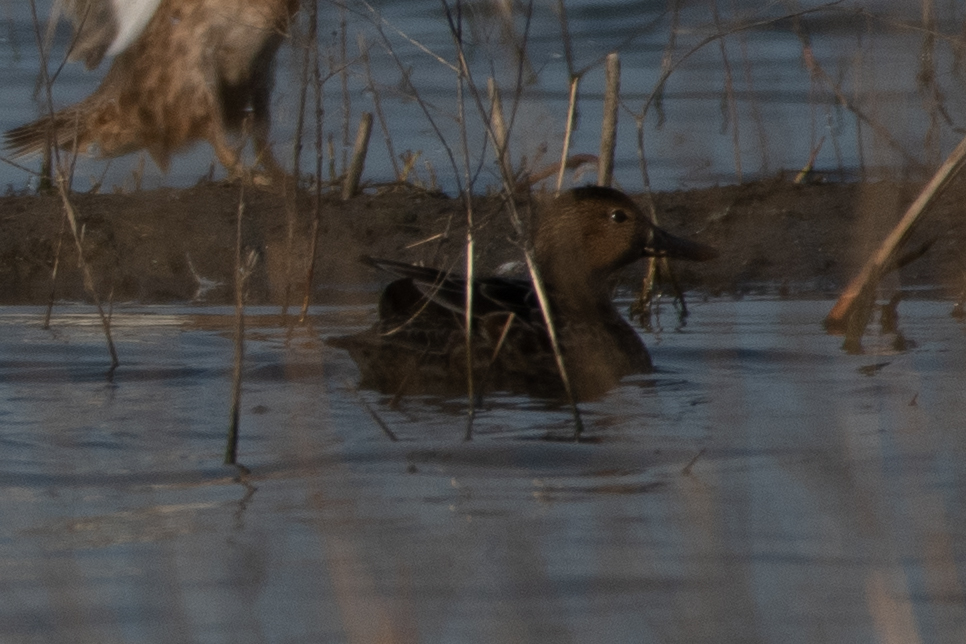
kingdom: Animalia
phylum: Chordata
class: Aves
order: Anseriformes
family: Anatidae
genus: Spatula
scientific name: Spatula cyanoptera
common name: Cinnamon teal
